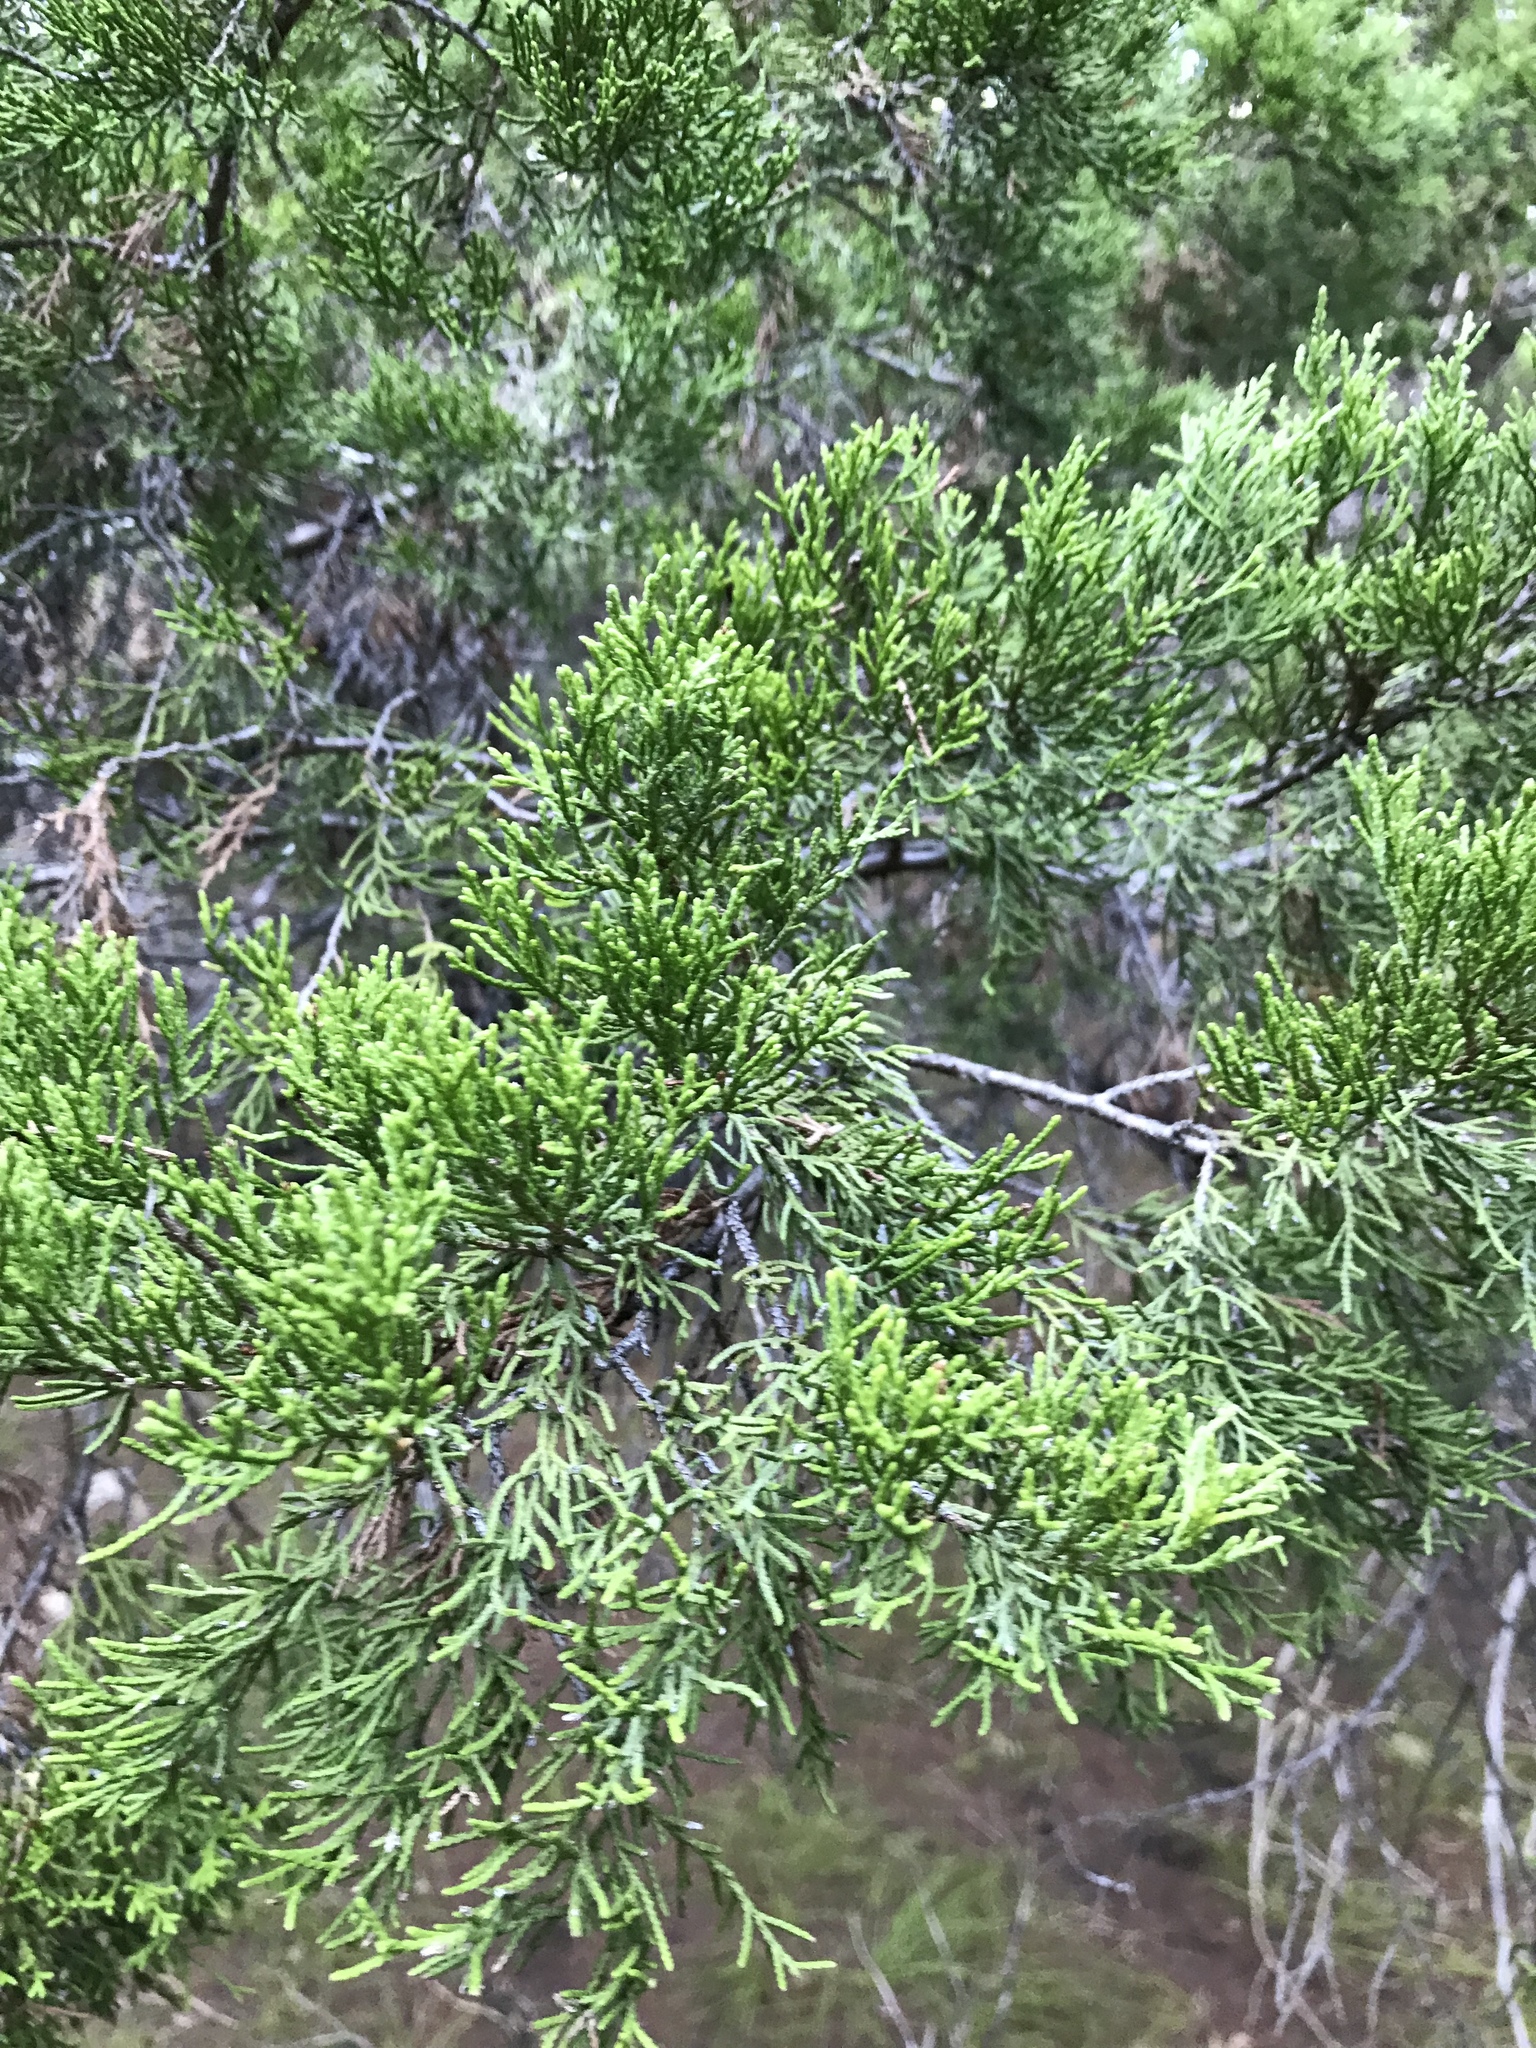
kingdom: Plantae
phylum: Tracheophyta
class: Pinopsida
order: Pinales
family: Cupressaceae
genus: Juniperus
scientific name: Juniperus ashei
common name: Mexican juniper
